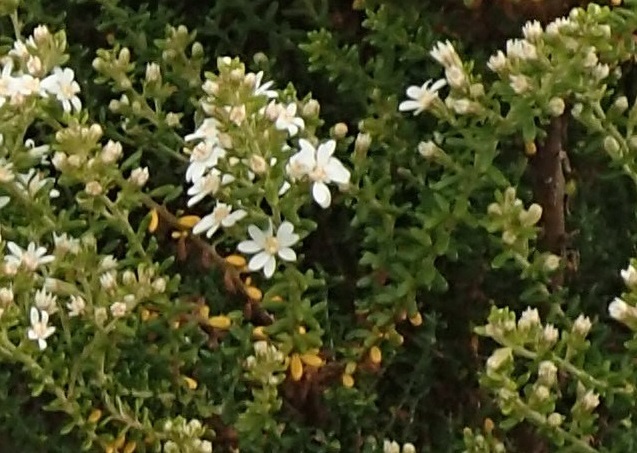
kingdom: Plantae
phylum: Tracheophyta
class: Magnoliopsida
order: Asterales
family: Asteraceae
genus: Olearia
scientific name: Olearia ramulosa
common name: Twiggy daisybush
